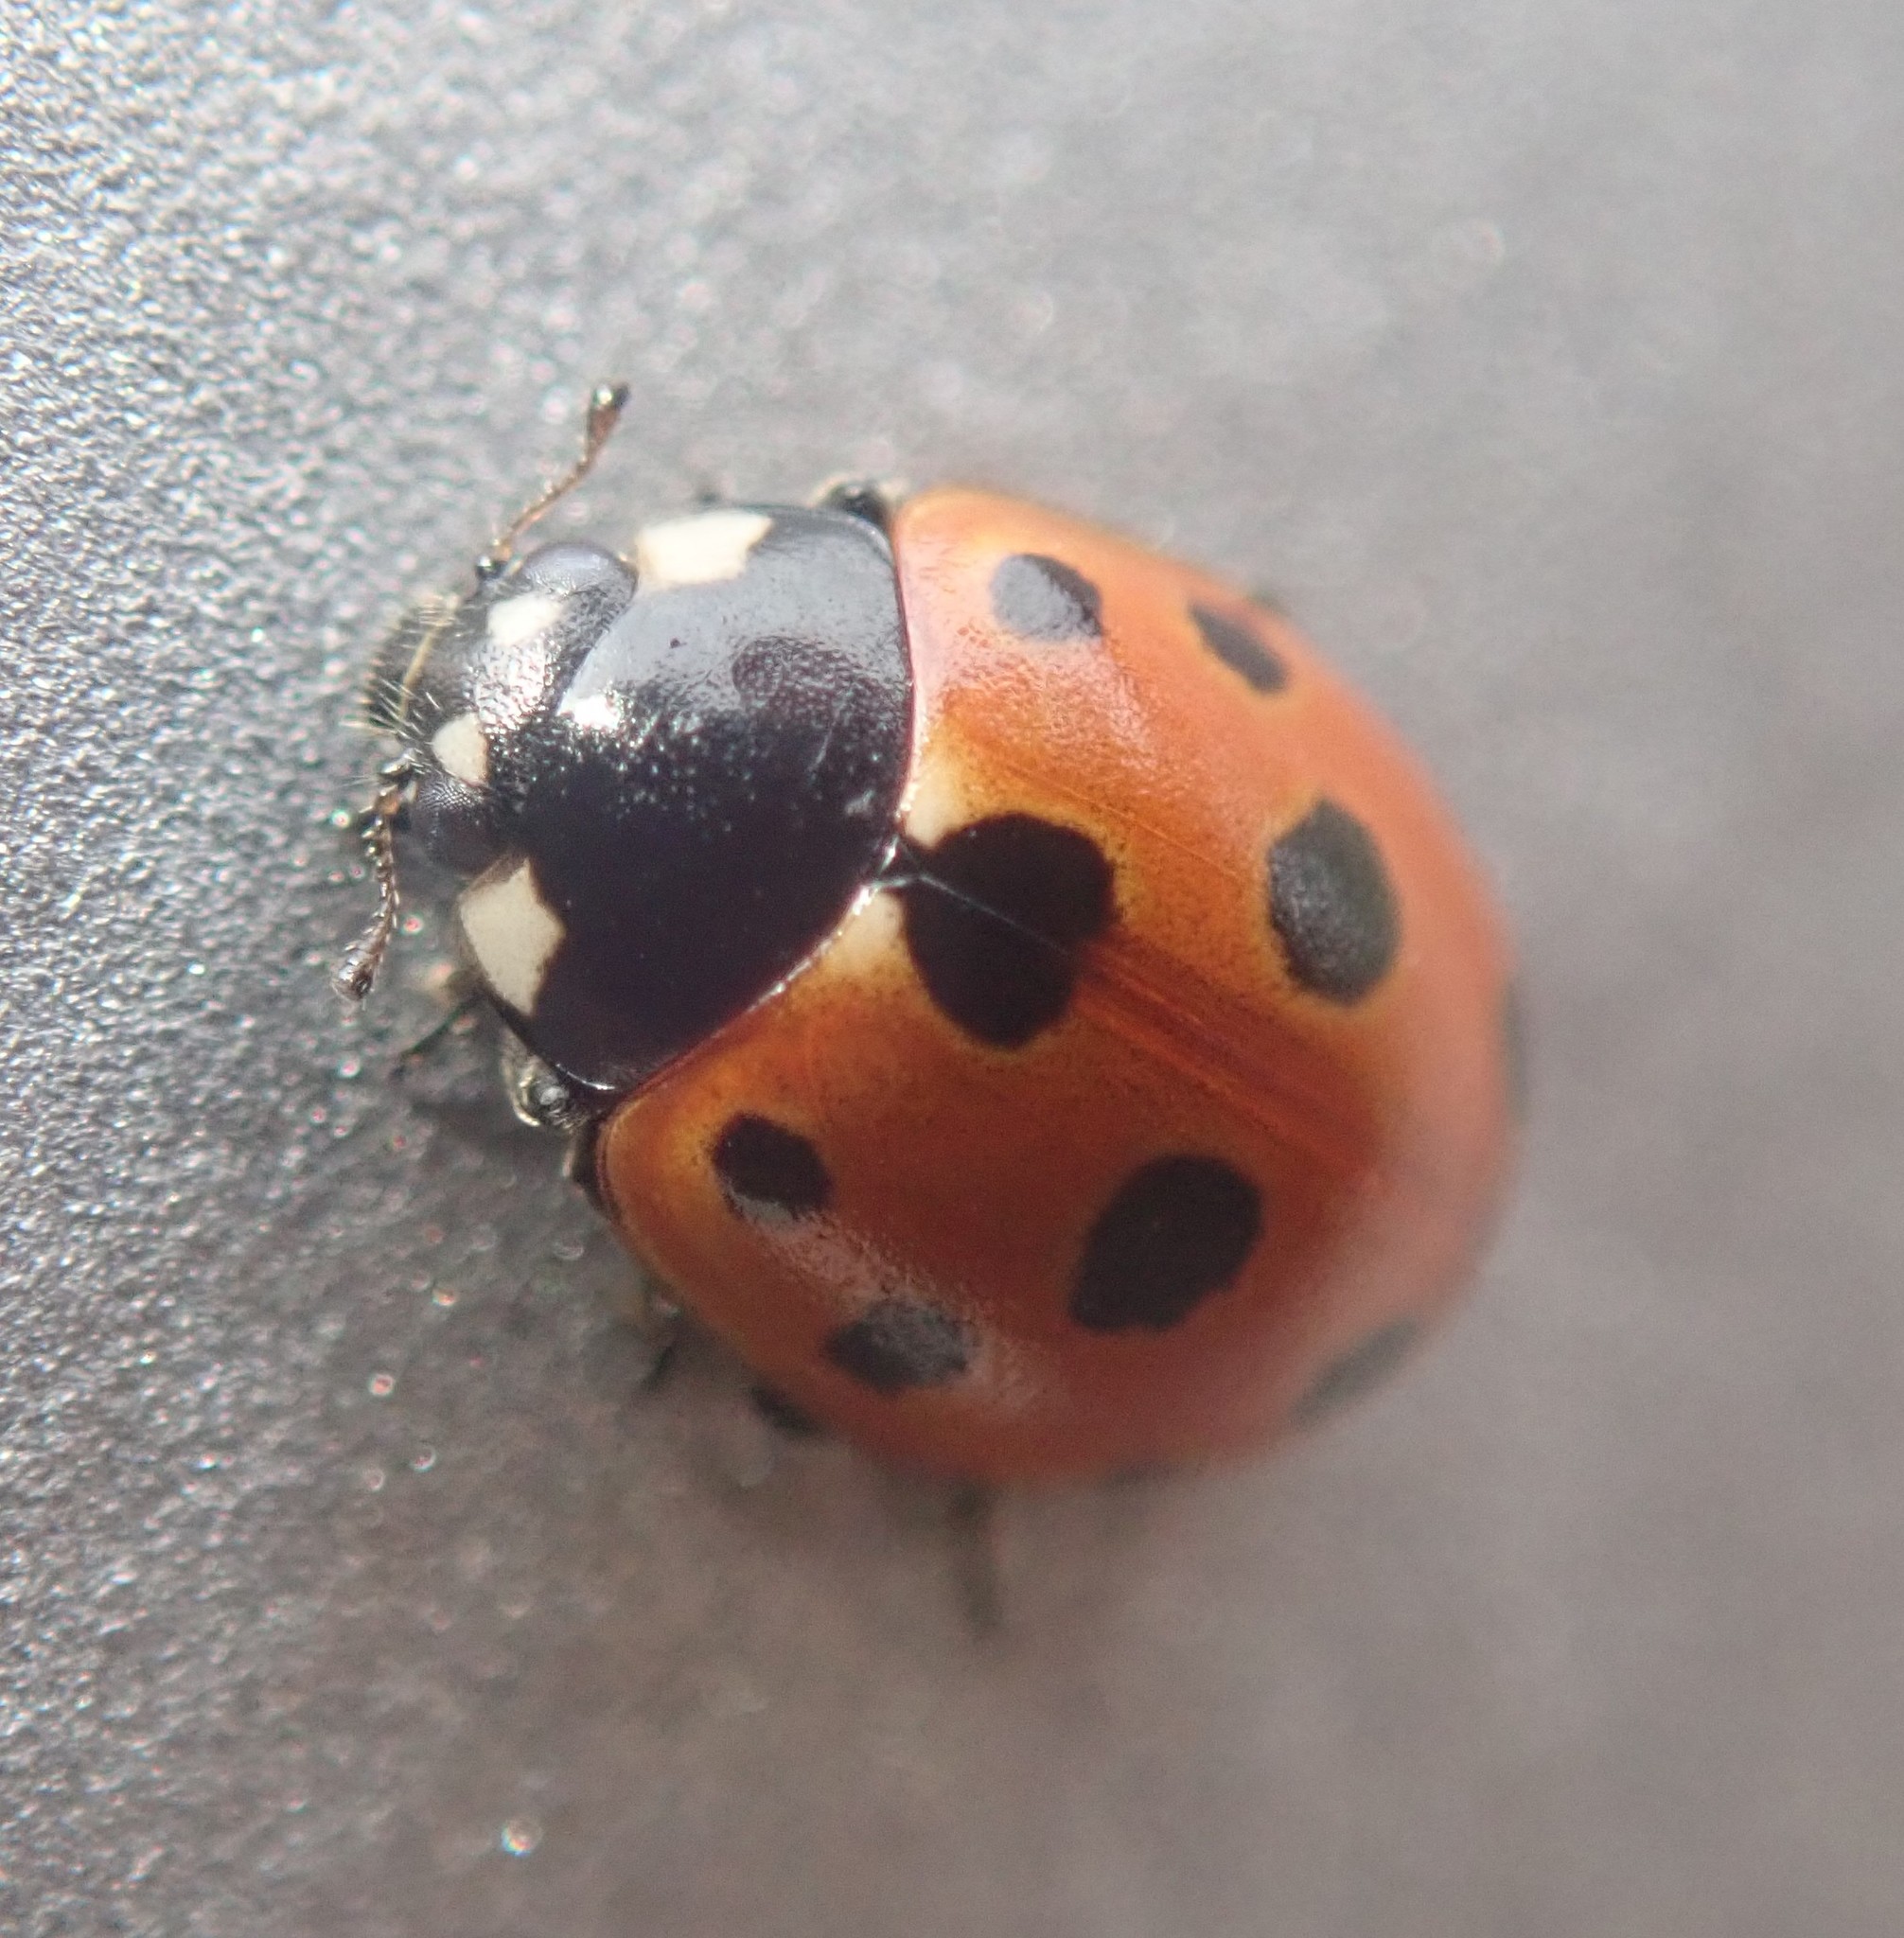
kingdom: Animalia
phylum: Arthropoda
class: Insecta
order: Coleoptera
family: Coccinellidae
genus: Coccinella
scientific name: Coccinella undecimpunctata
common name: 11-spot ladybird
